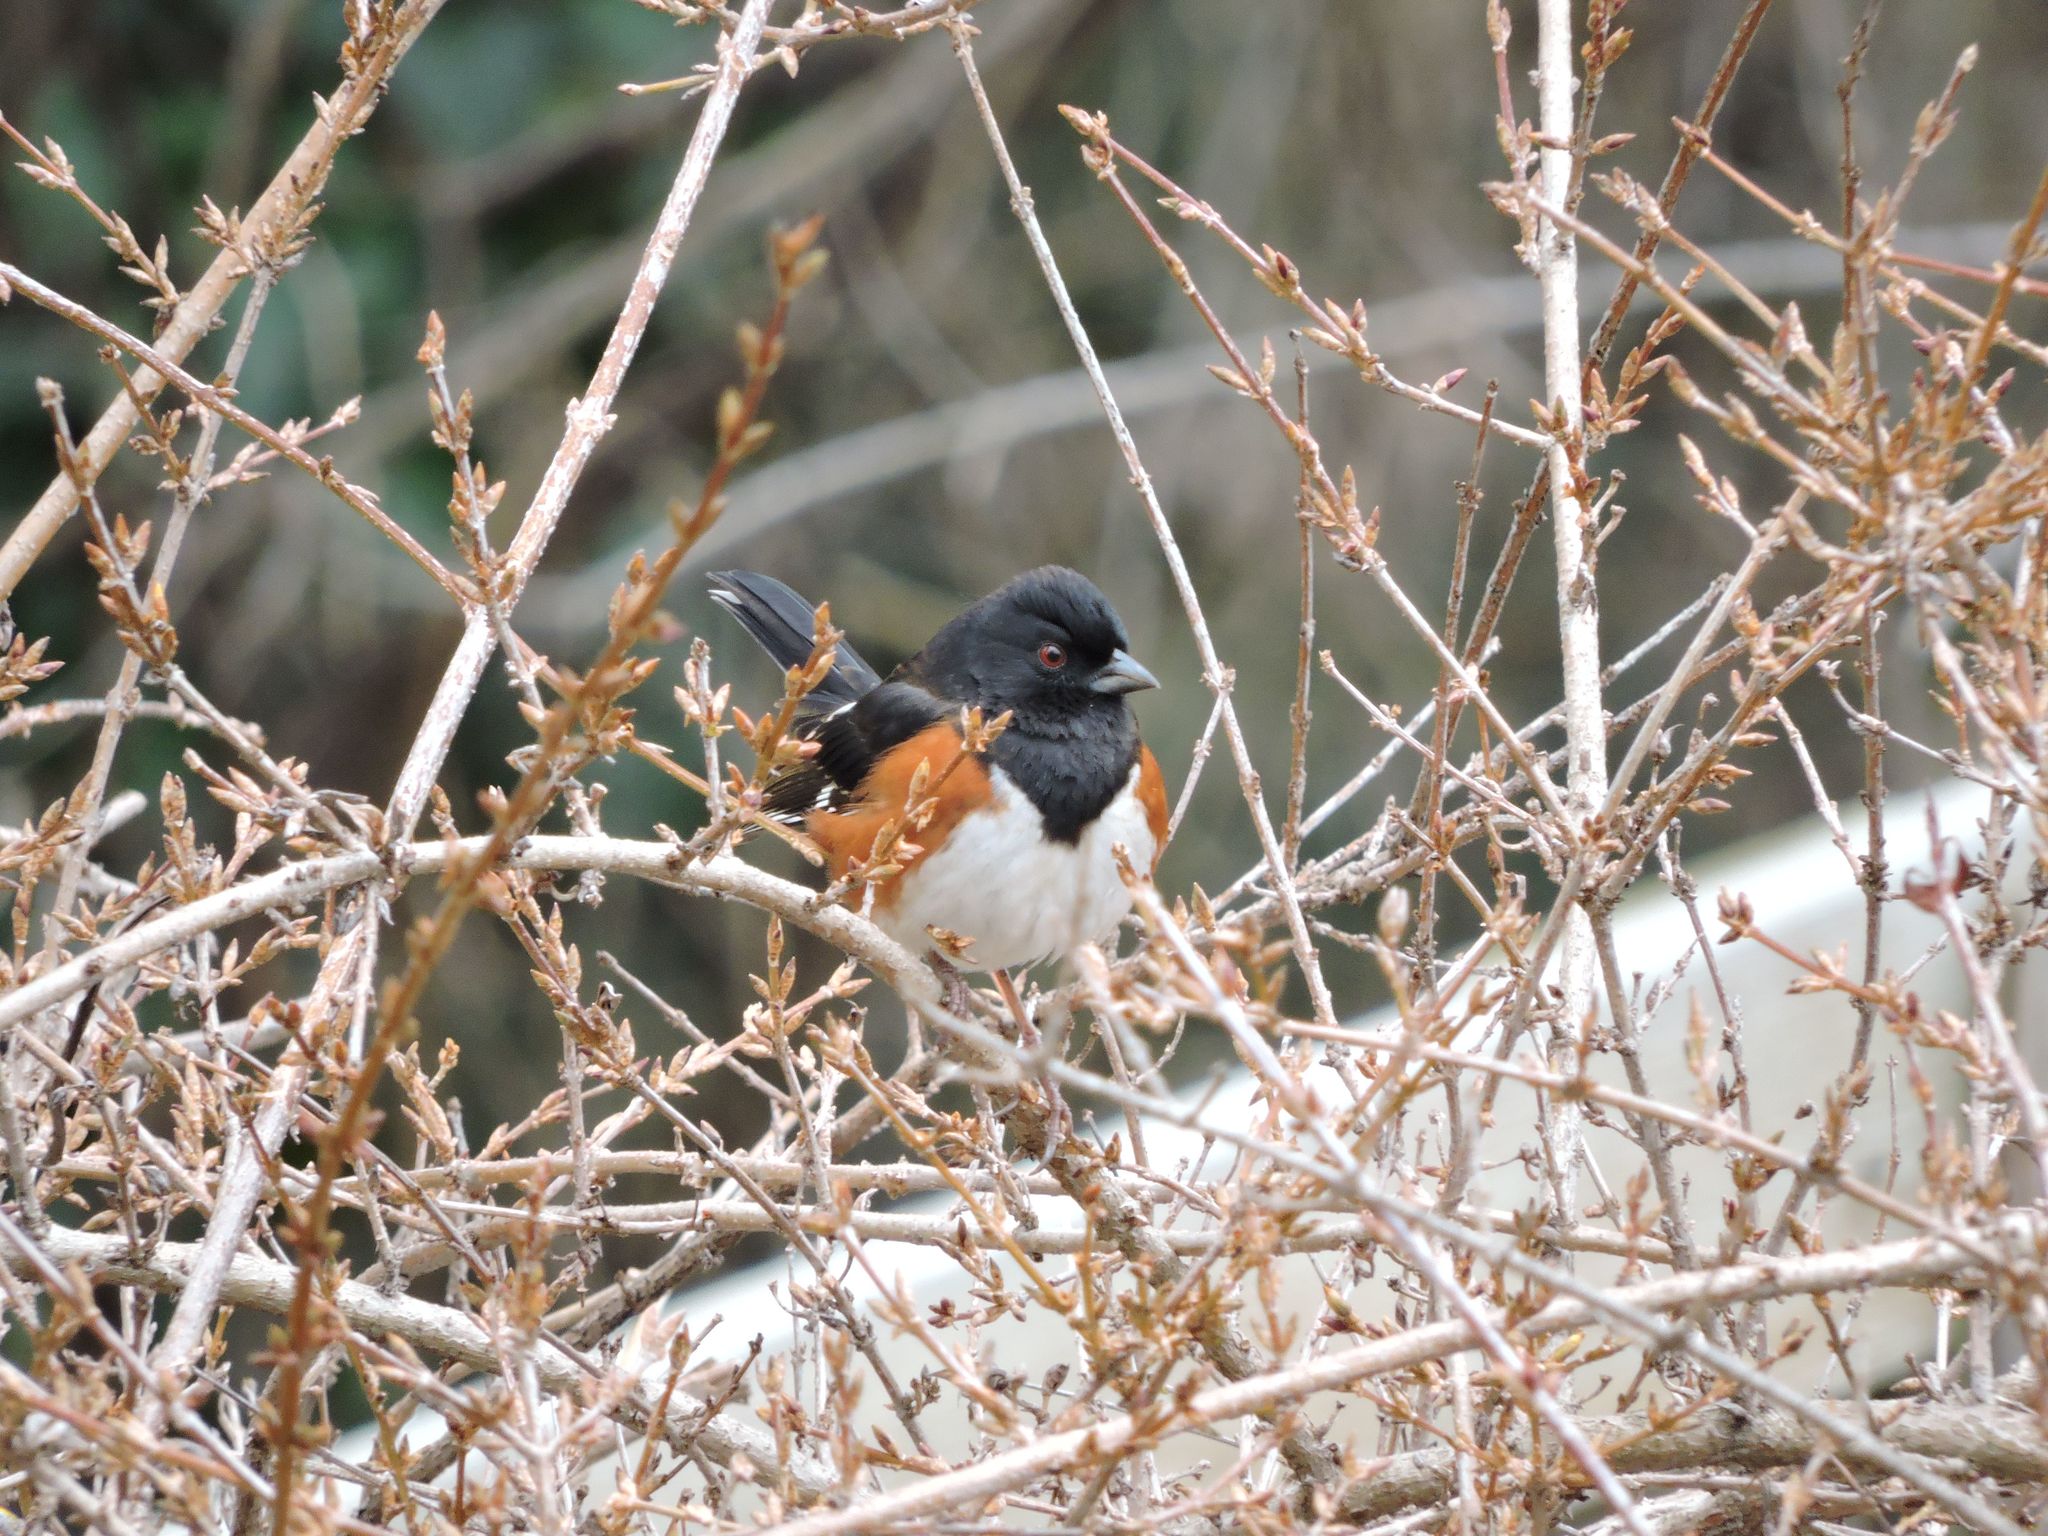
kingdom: Animalia
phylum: Chordata
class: Aves
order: Passeriformes
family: Passerellidae
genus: Pipilo
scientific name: Pipilo erythrophthalmus
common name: Eastern towhee
